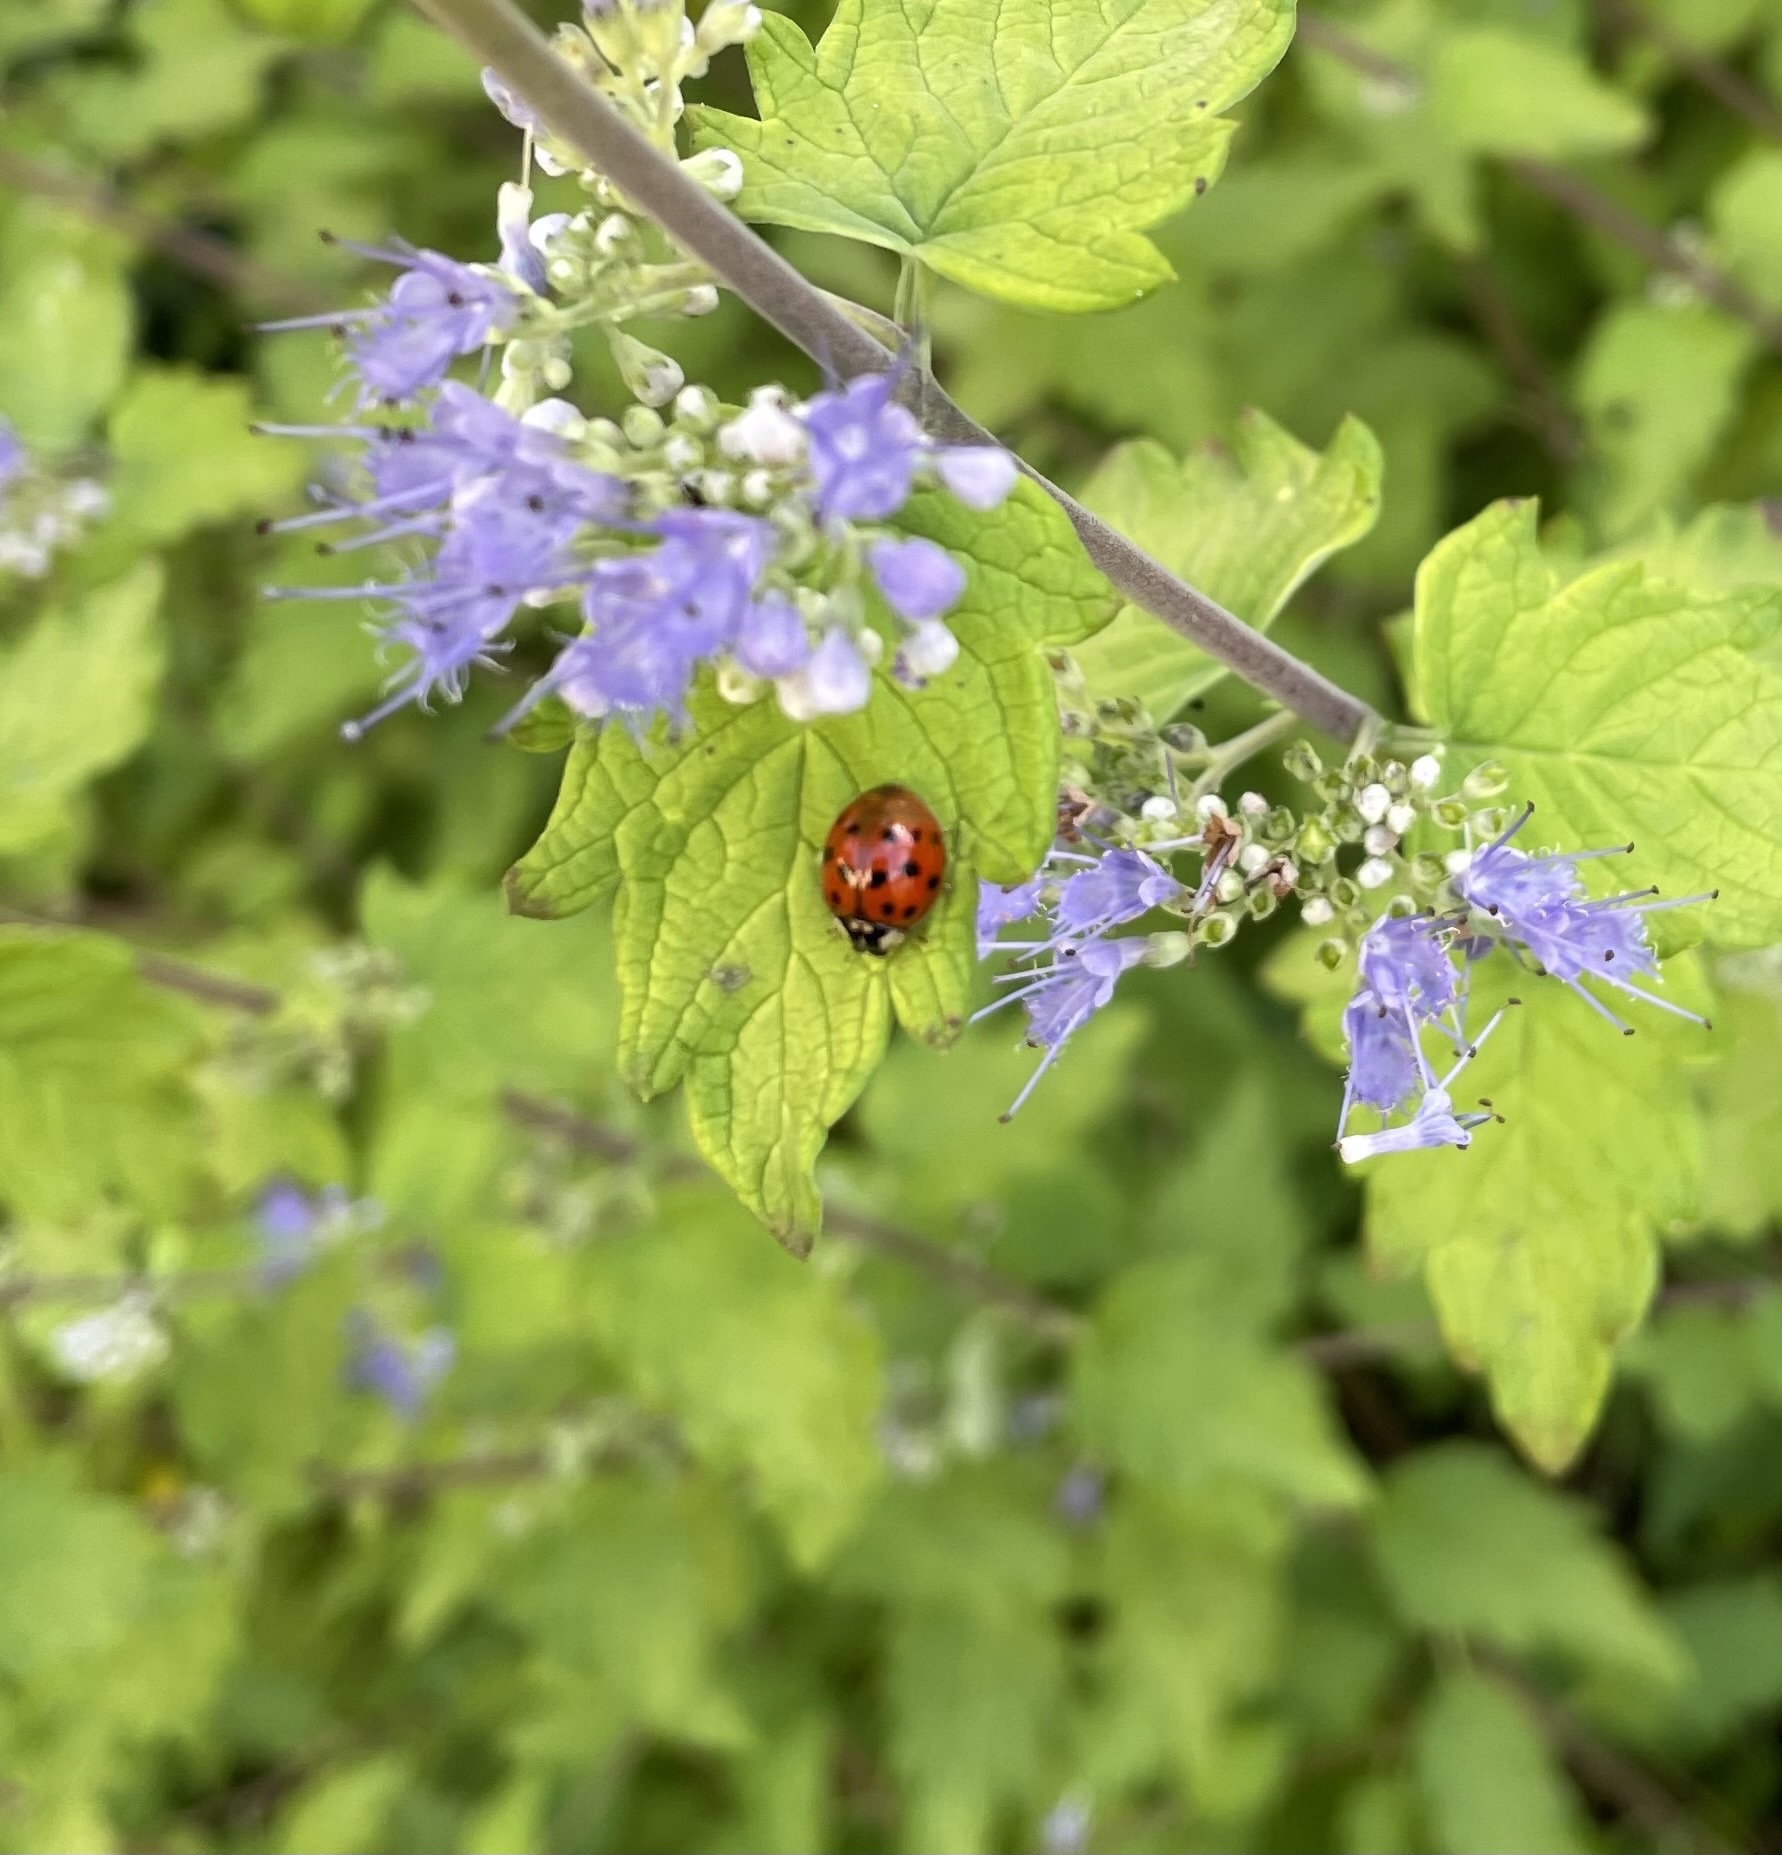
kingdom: Animalia
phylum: Arthropoda
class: Insecta
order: Coleoptera
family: Coccinellidae
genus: Harmonia
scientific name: Harmonia axyridis
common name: Harlequin ladybird
